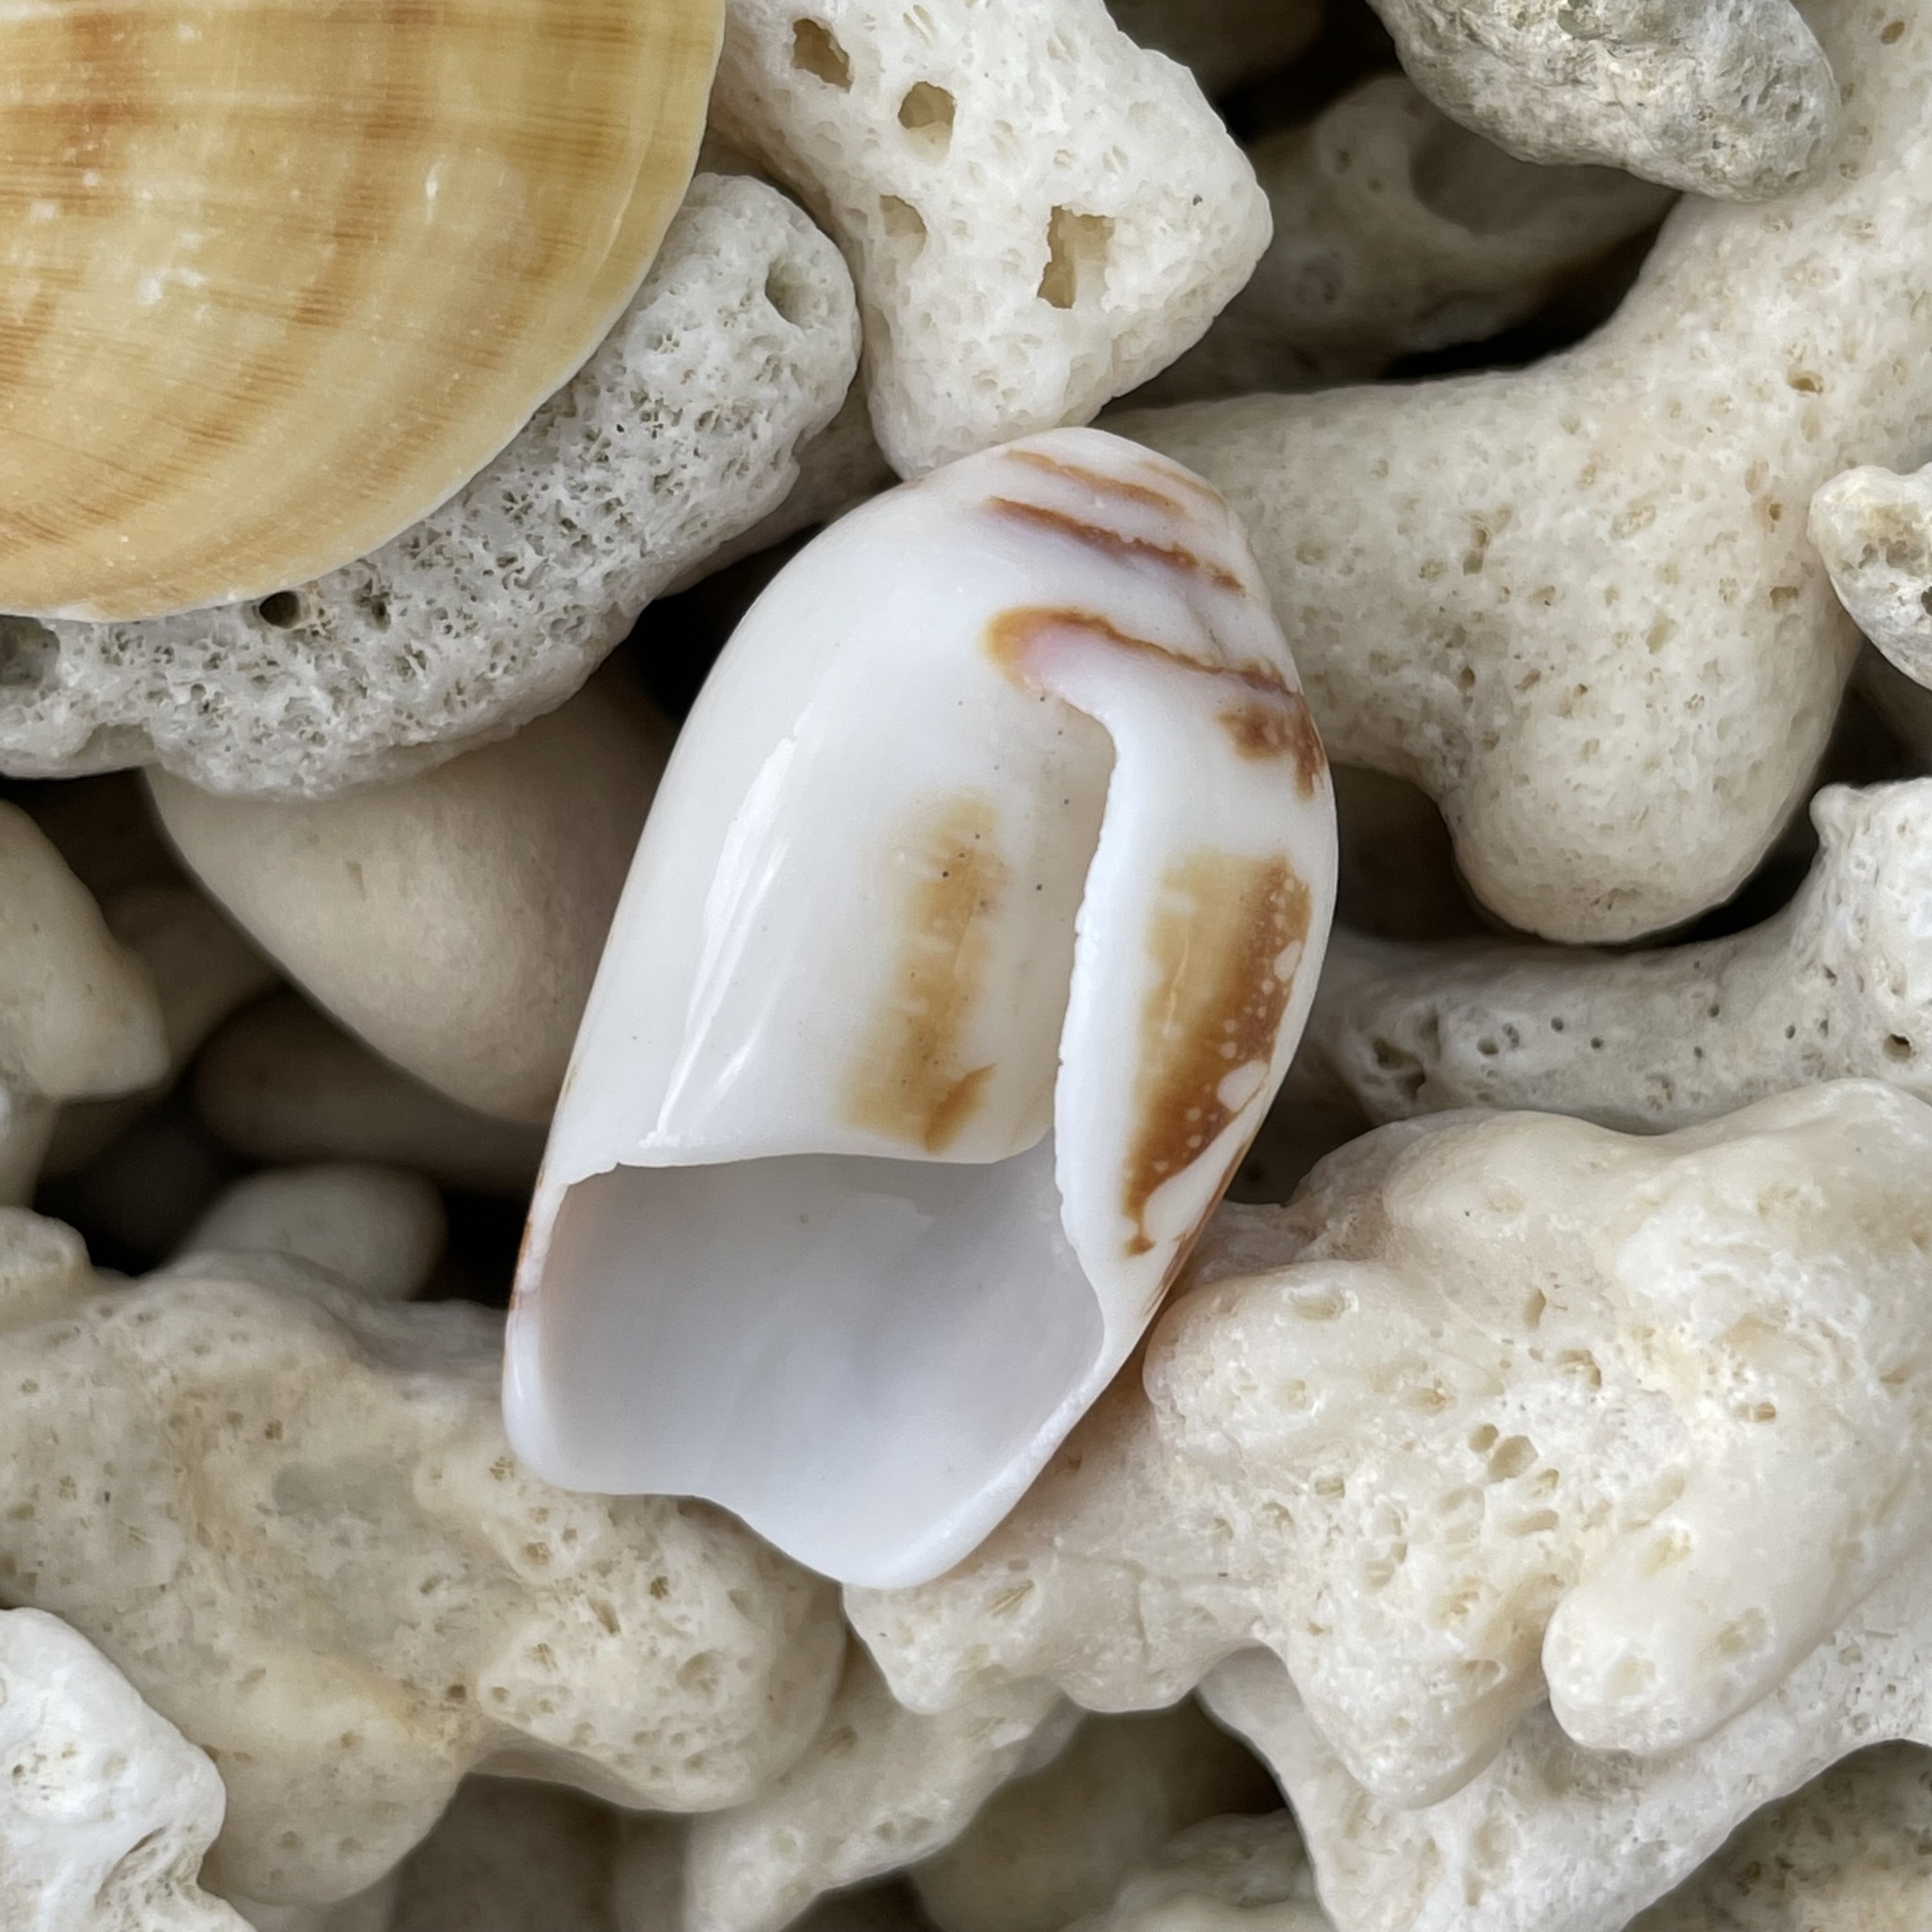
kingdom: Animalia
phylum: Mollusca
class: Gastropoda
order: Neogastropoda
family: Conidae
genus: Conus
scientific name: Conus magnificus
